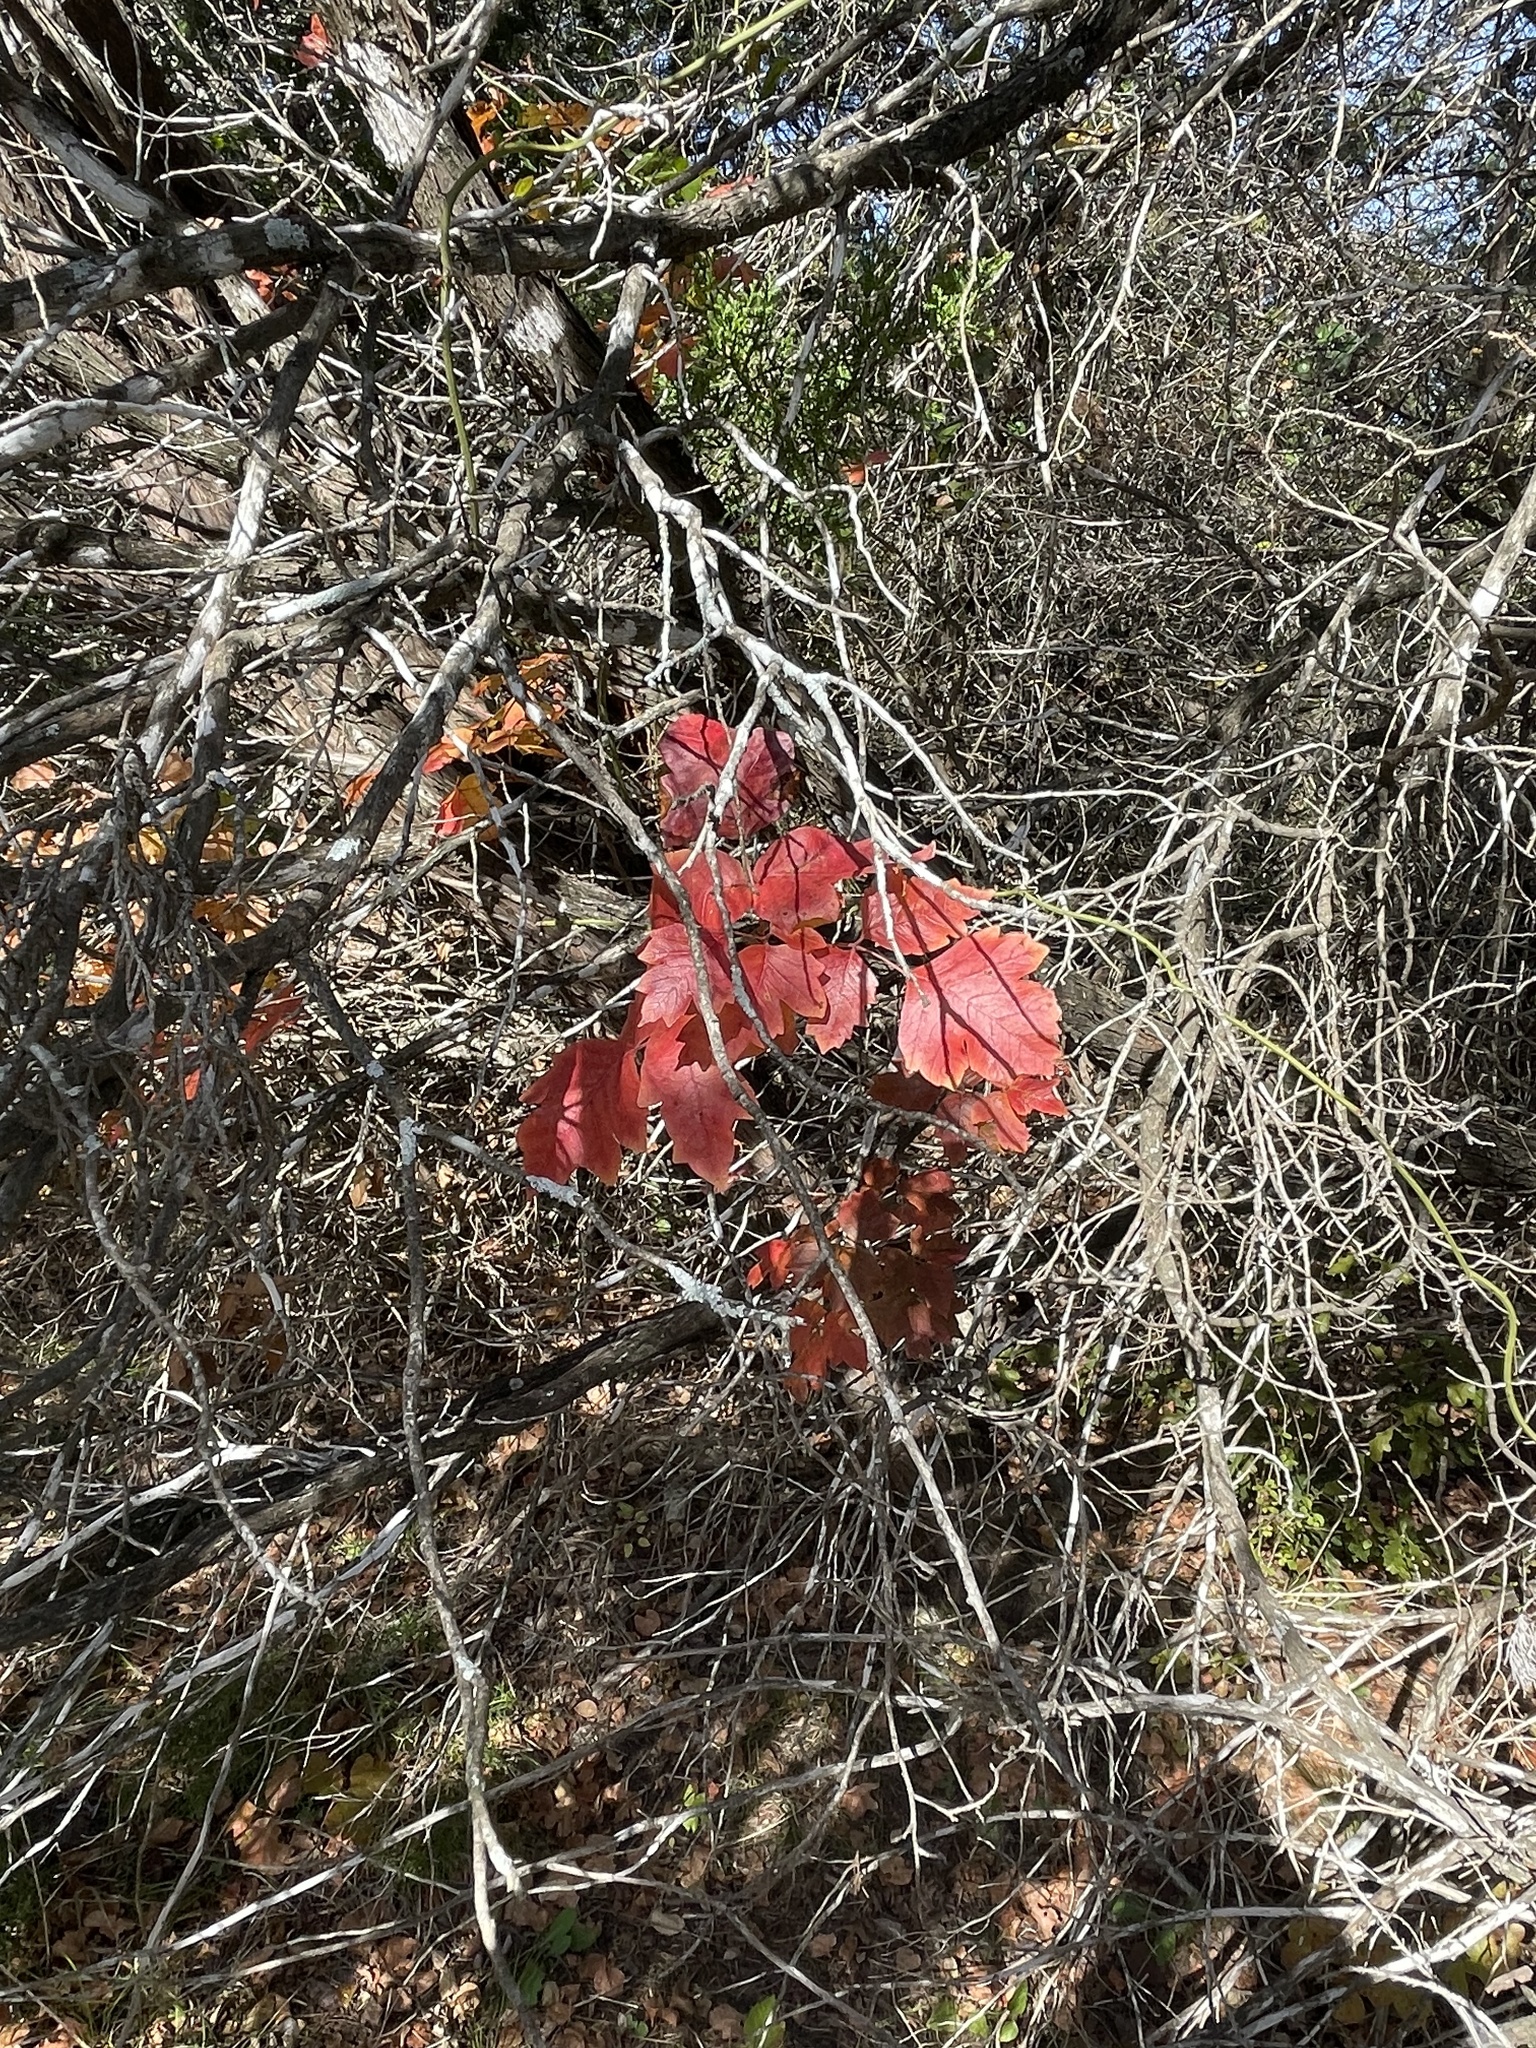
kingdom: Plantae
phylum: Tracheophyta
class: Magnoliopsida
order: Sapindales
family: Anacardiaceae
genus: Toxicodendron
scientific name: Toxicodendron radicans
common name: Poison ivy
